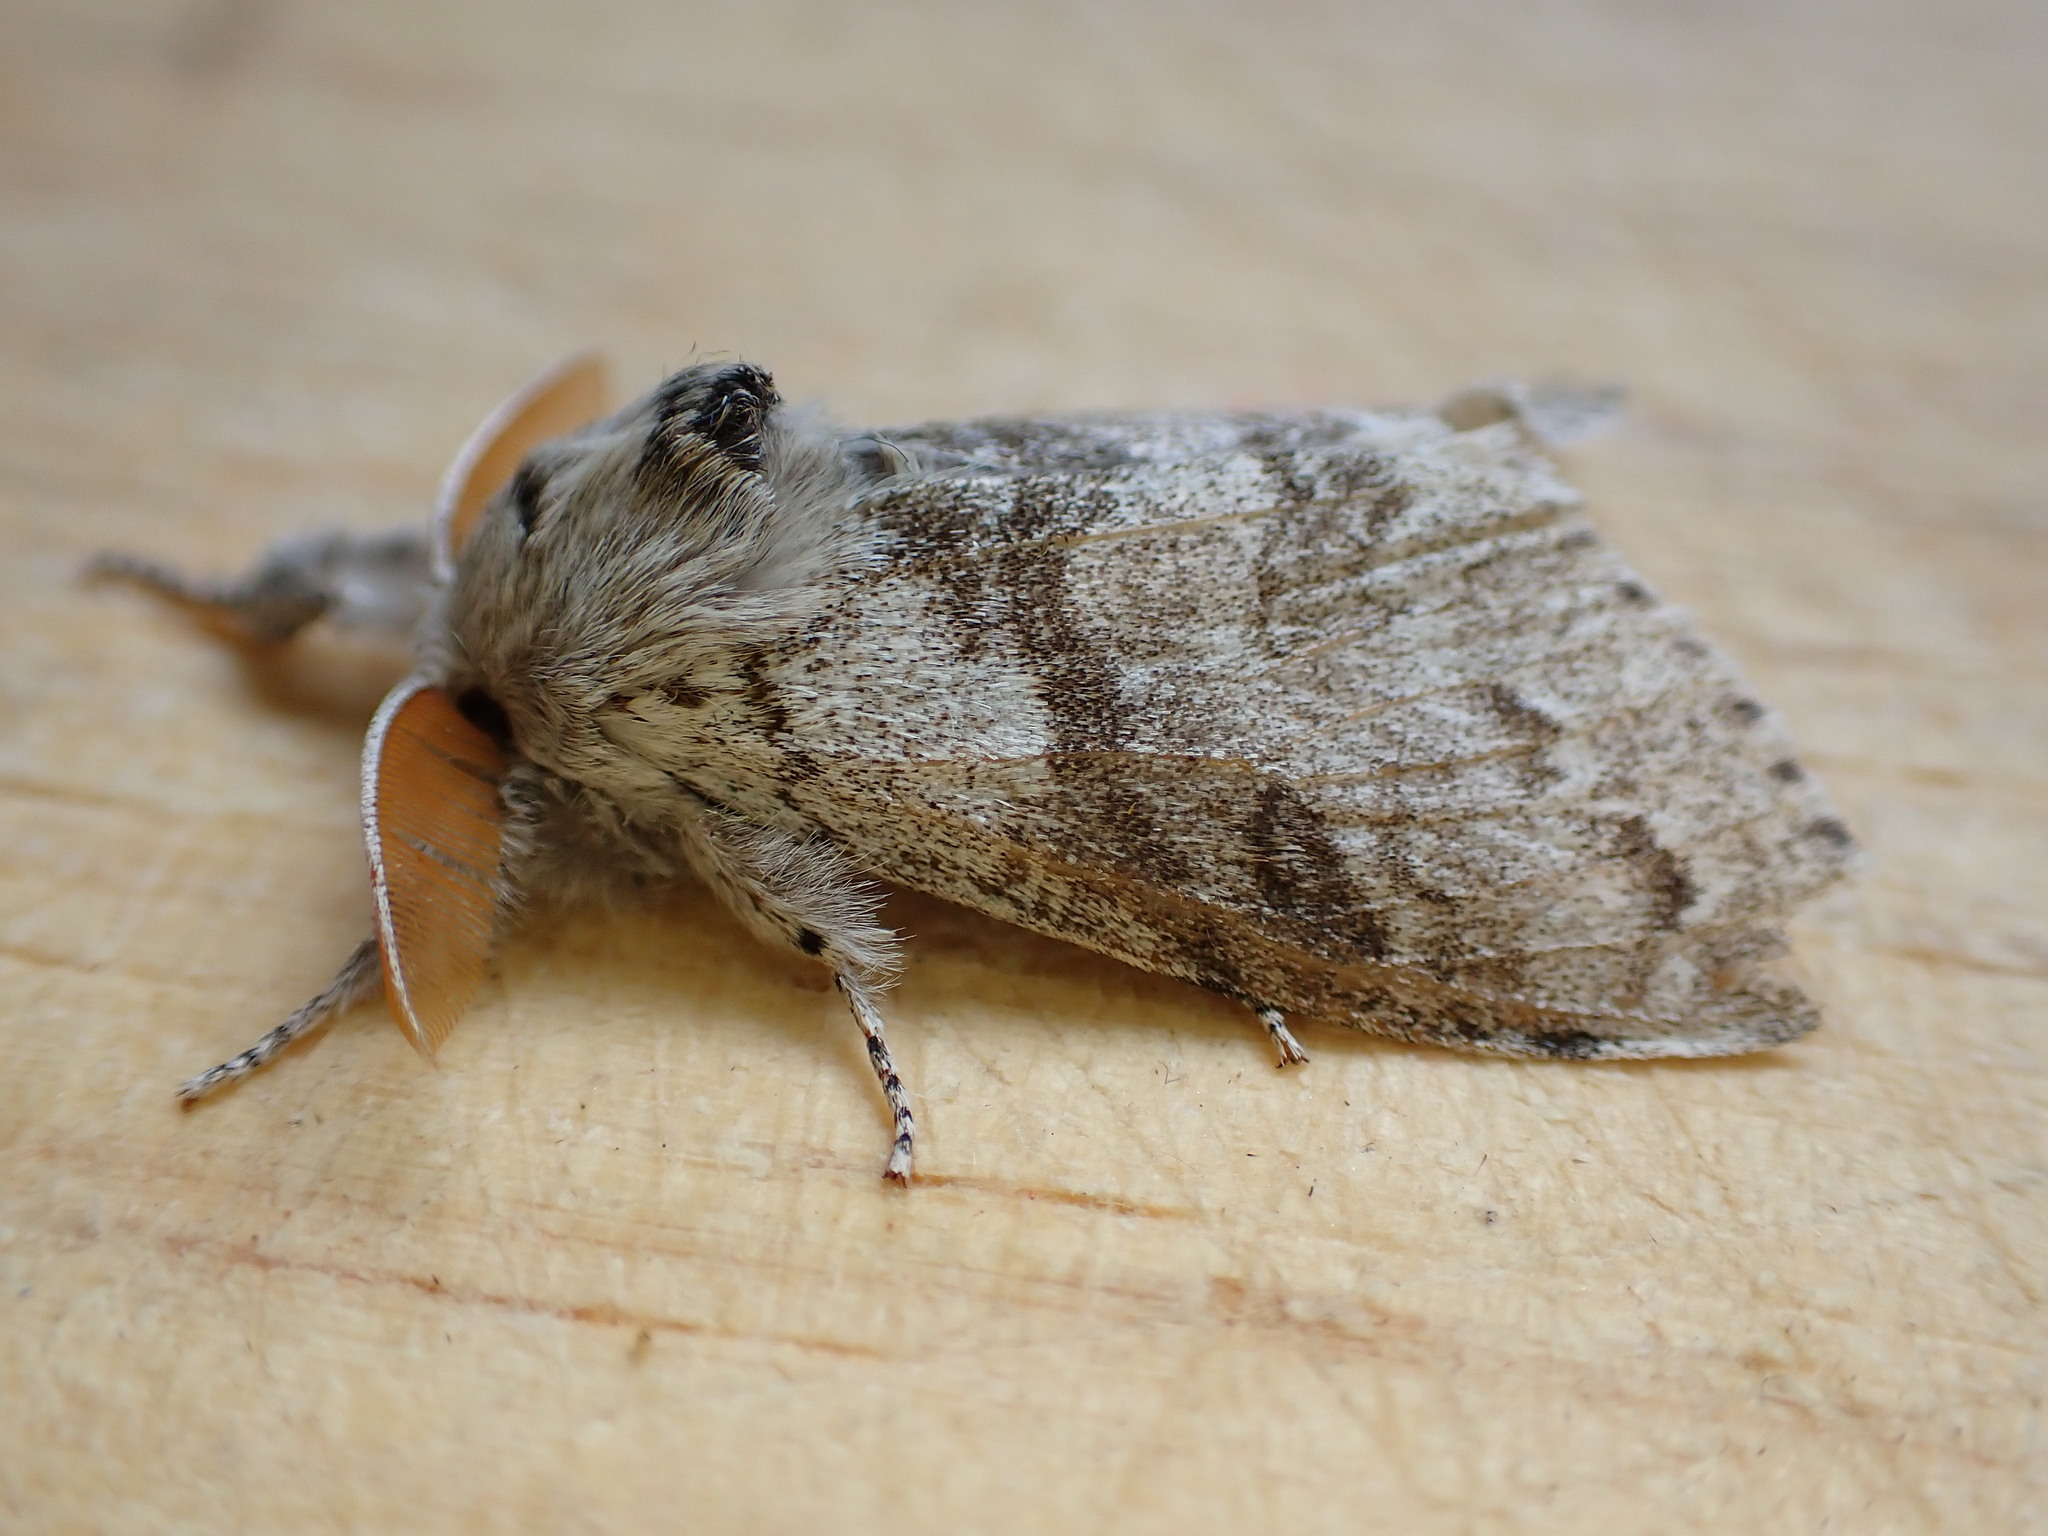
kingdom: Animalia
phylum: Arthropoda
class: Insecta
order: Lepidoptera
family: Erebidae
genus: Calliteara
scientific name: Calliteara pudibunda
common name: Pale tussock
